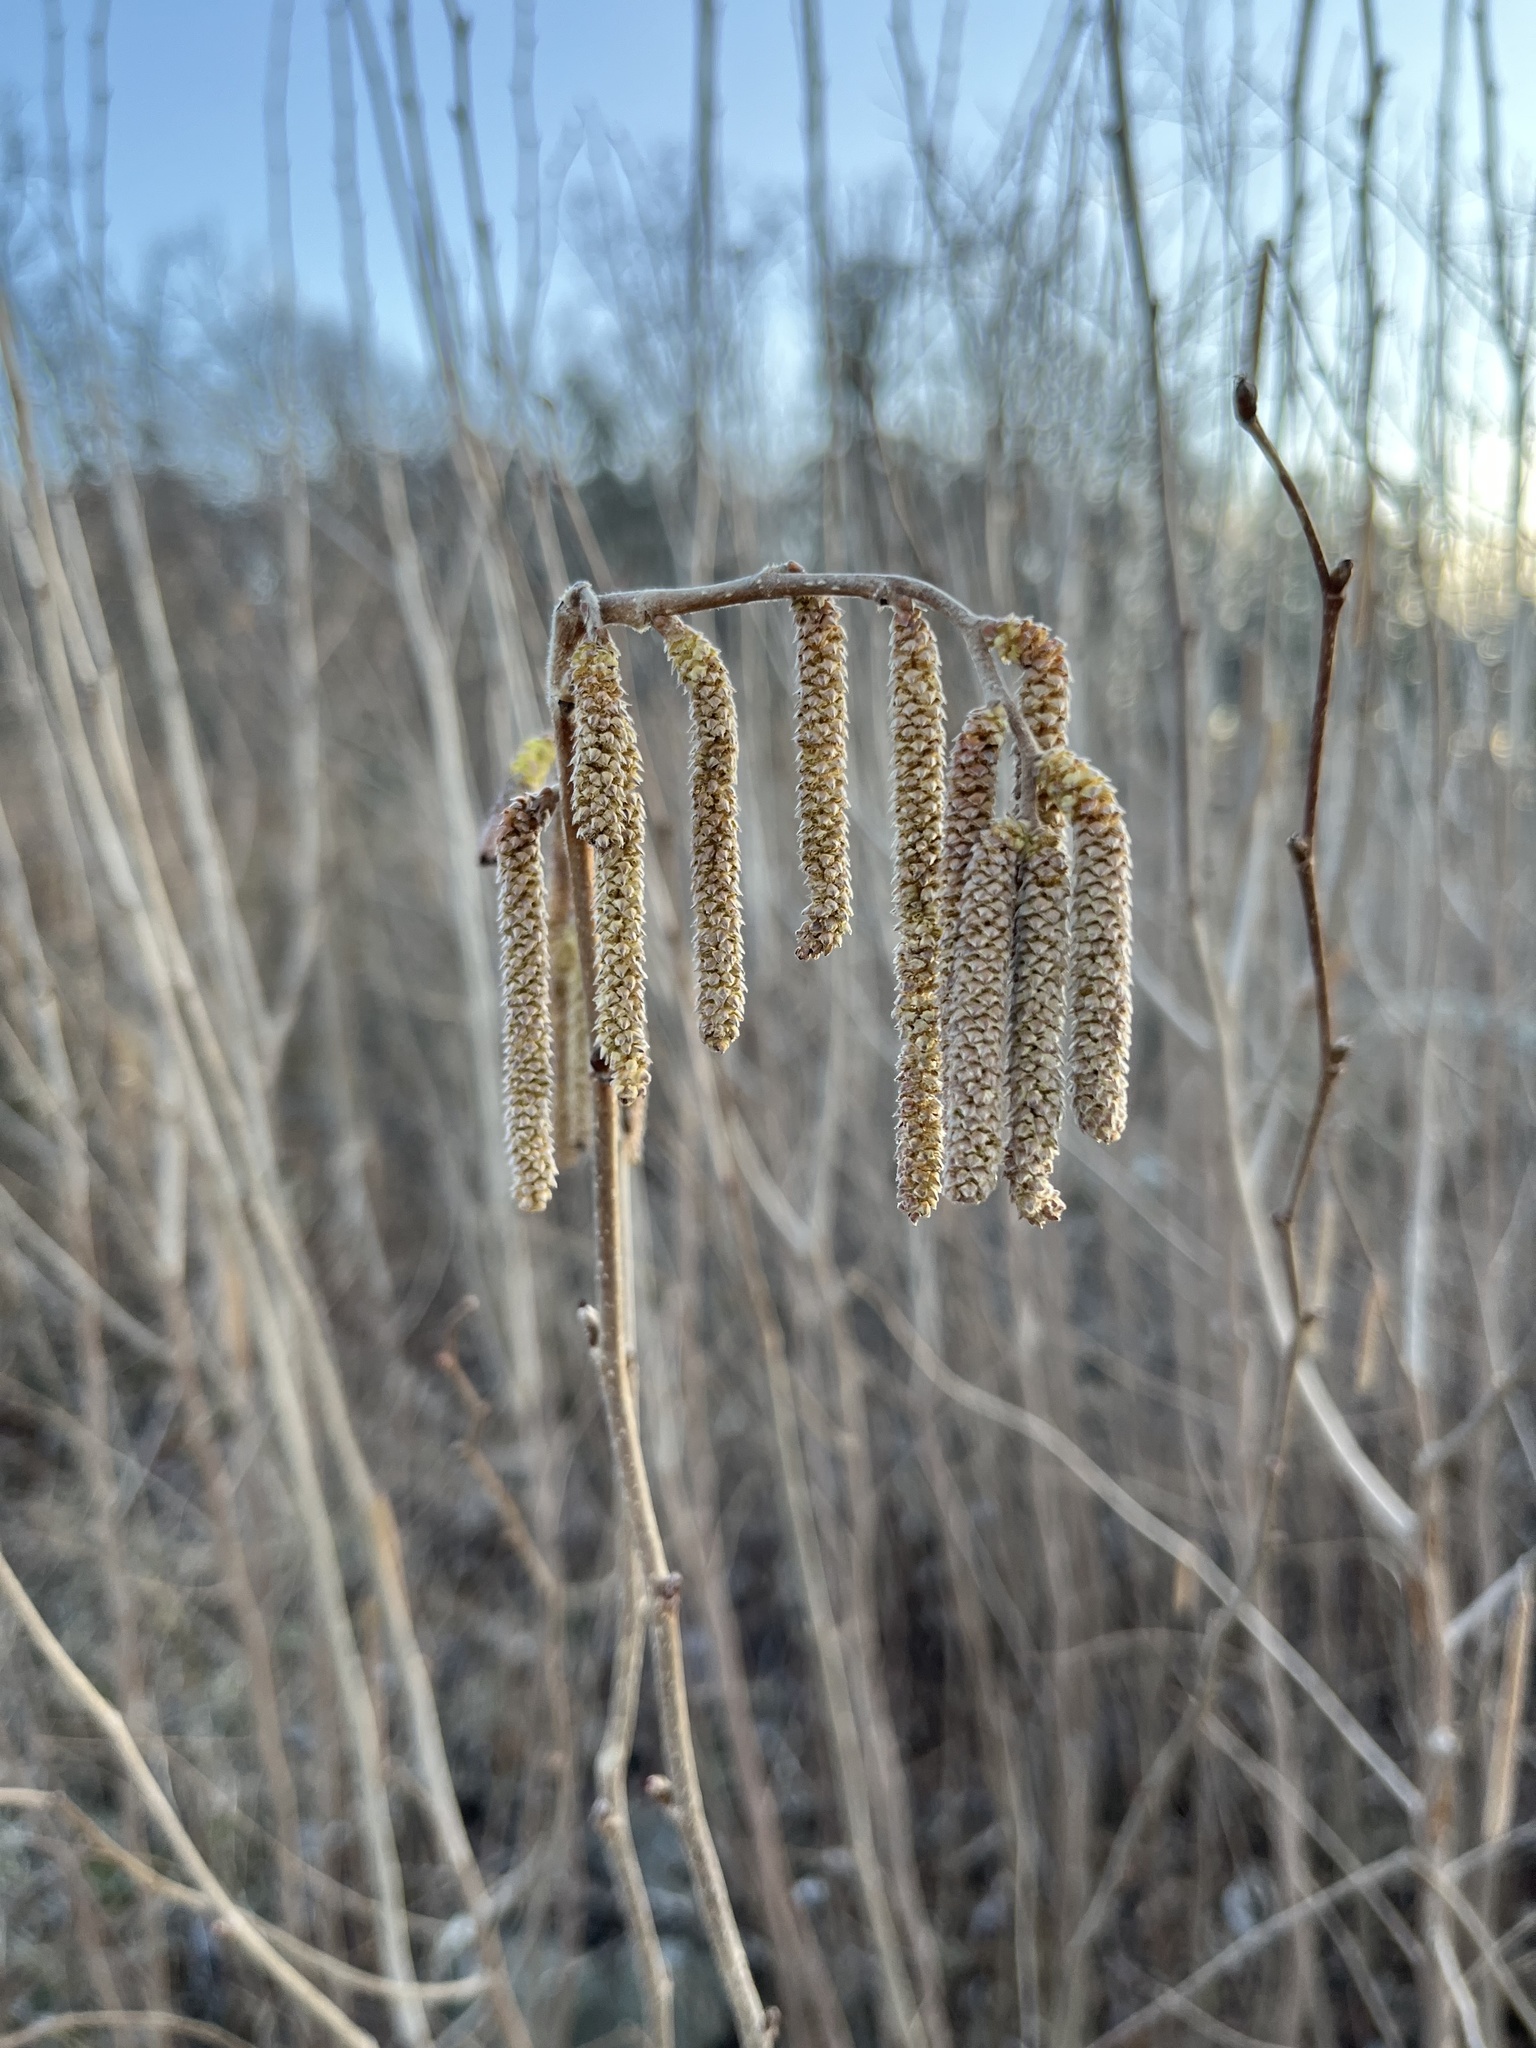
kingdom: Plantae
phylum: Tracheophyta
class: Magnoliopsida
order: Fagales
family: Betulaceae
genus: Corylus
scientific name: Corylus americana
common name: American hazel
